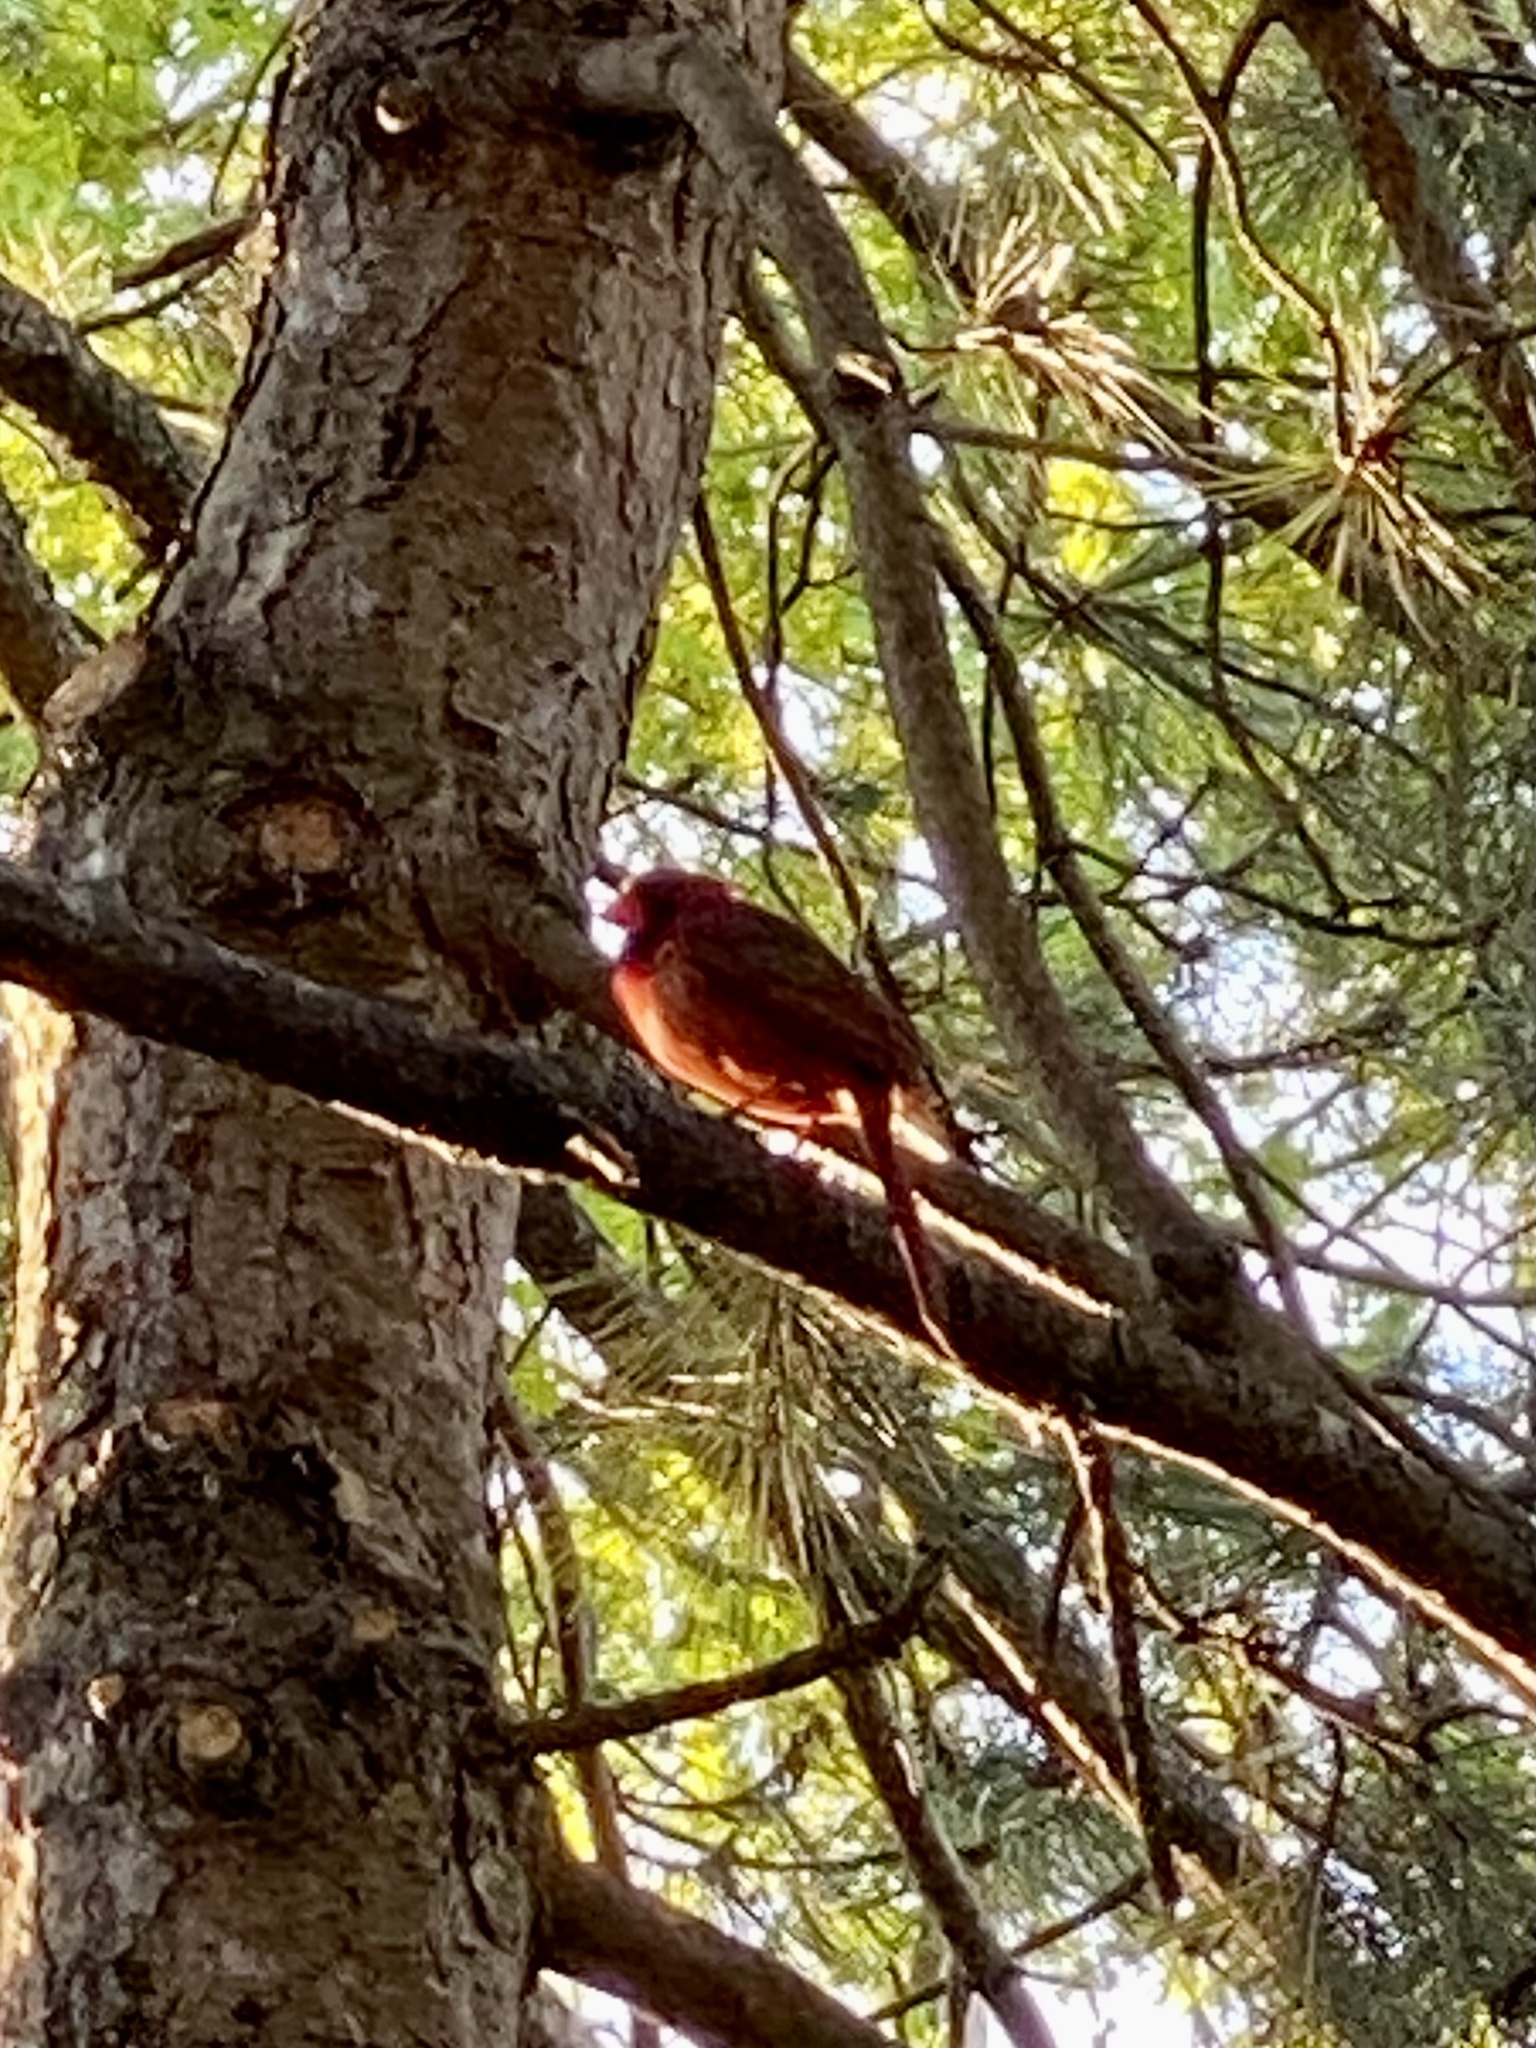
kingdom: Animalia
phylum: Chordata
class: Aves
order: Passeriformes
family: Cardinalidae
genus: Cardinalis
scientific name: Cardinalis cardinalis
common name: Northern cardinal
